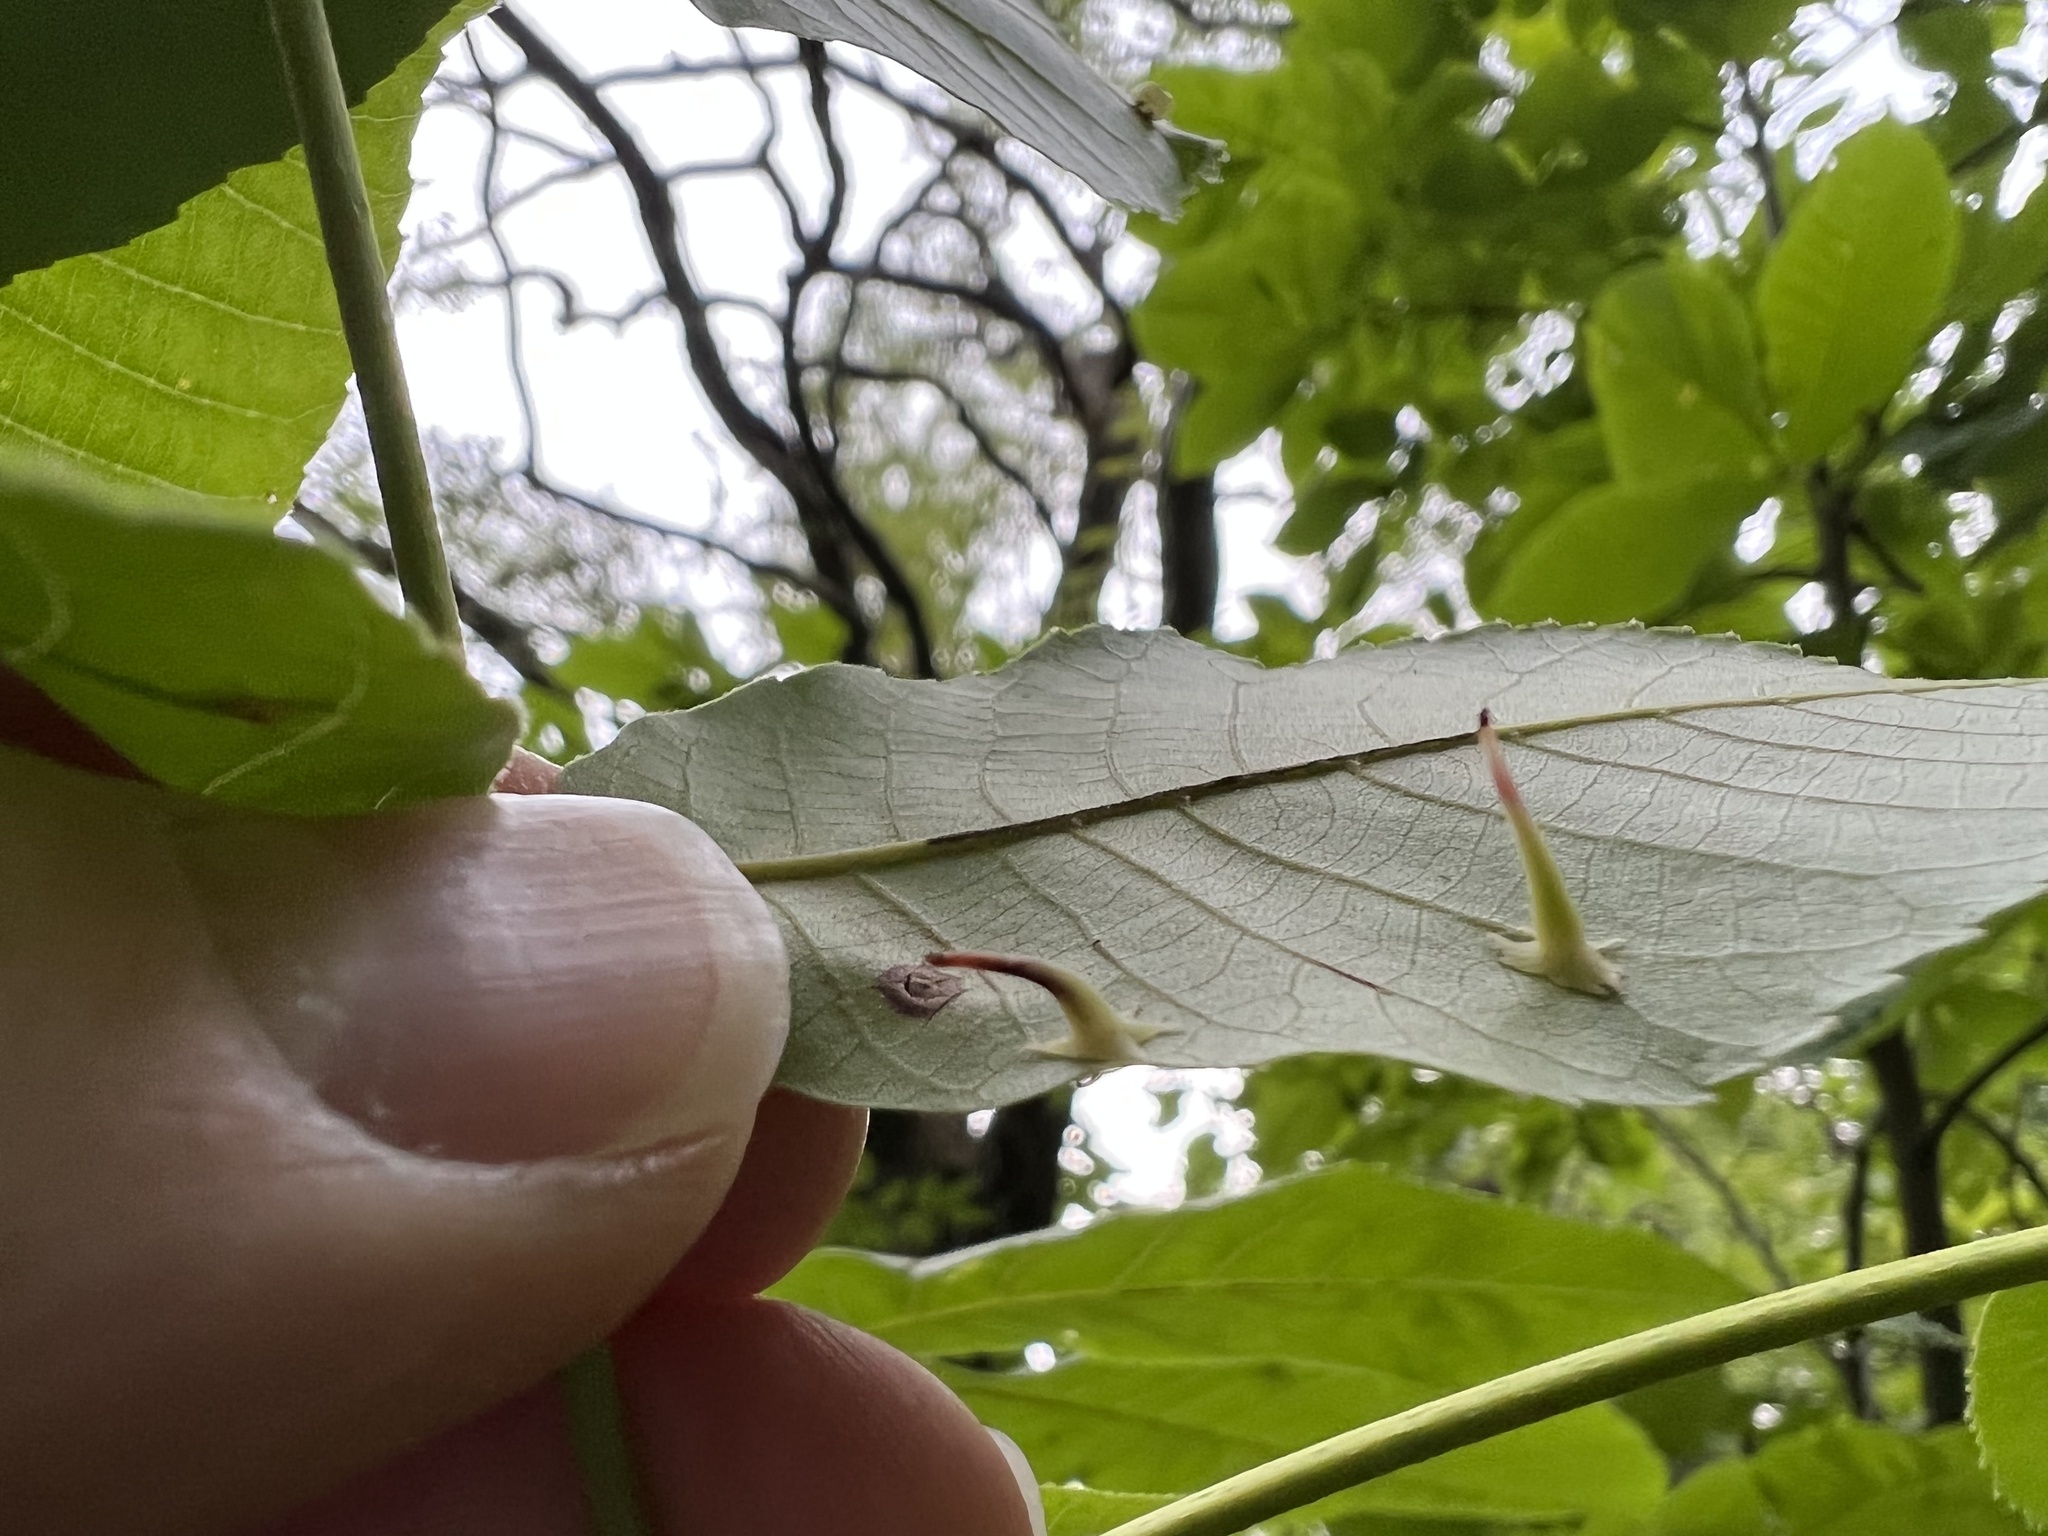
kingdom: Animalia
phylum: Arthropoda
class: Insecta
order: Diptera
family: Cecidomyiidae
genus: Caryomyia
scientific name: Caryomyia stellata
